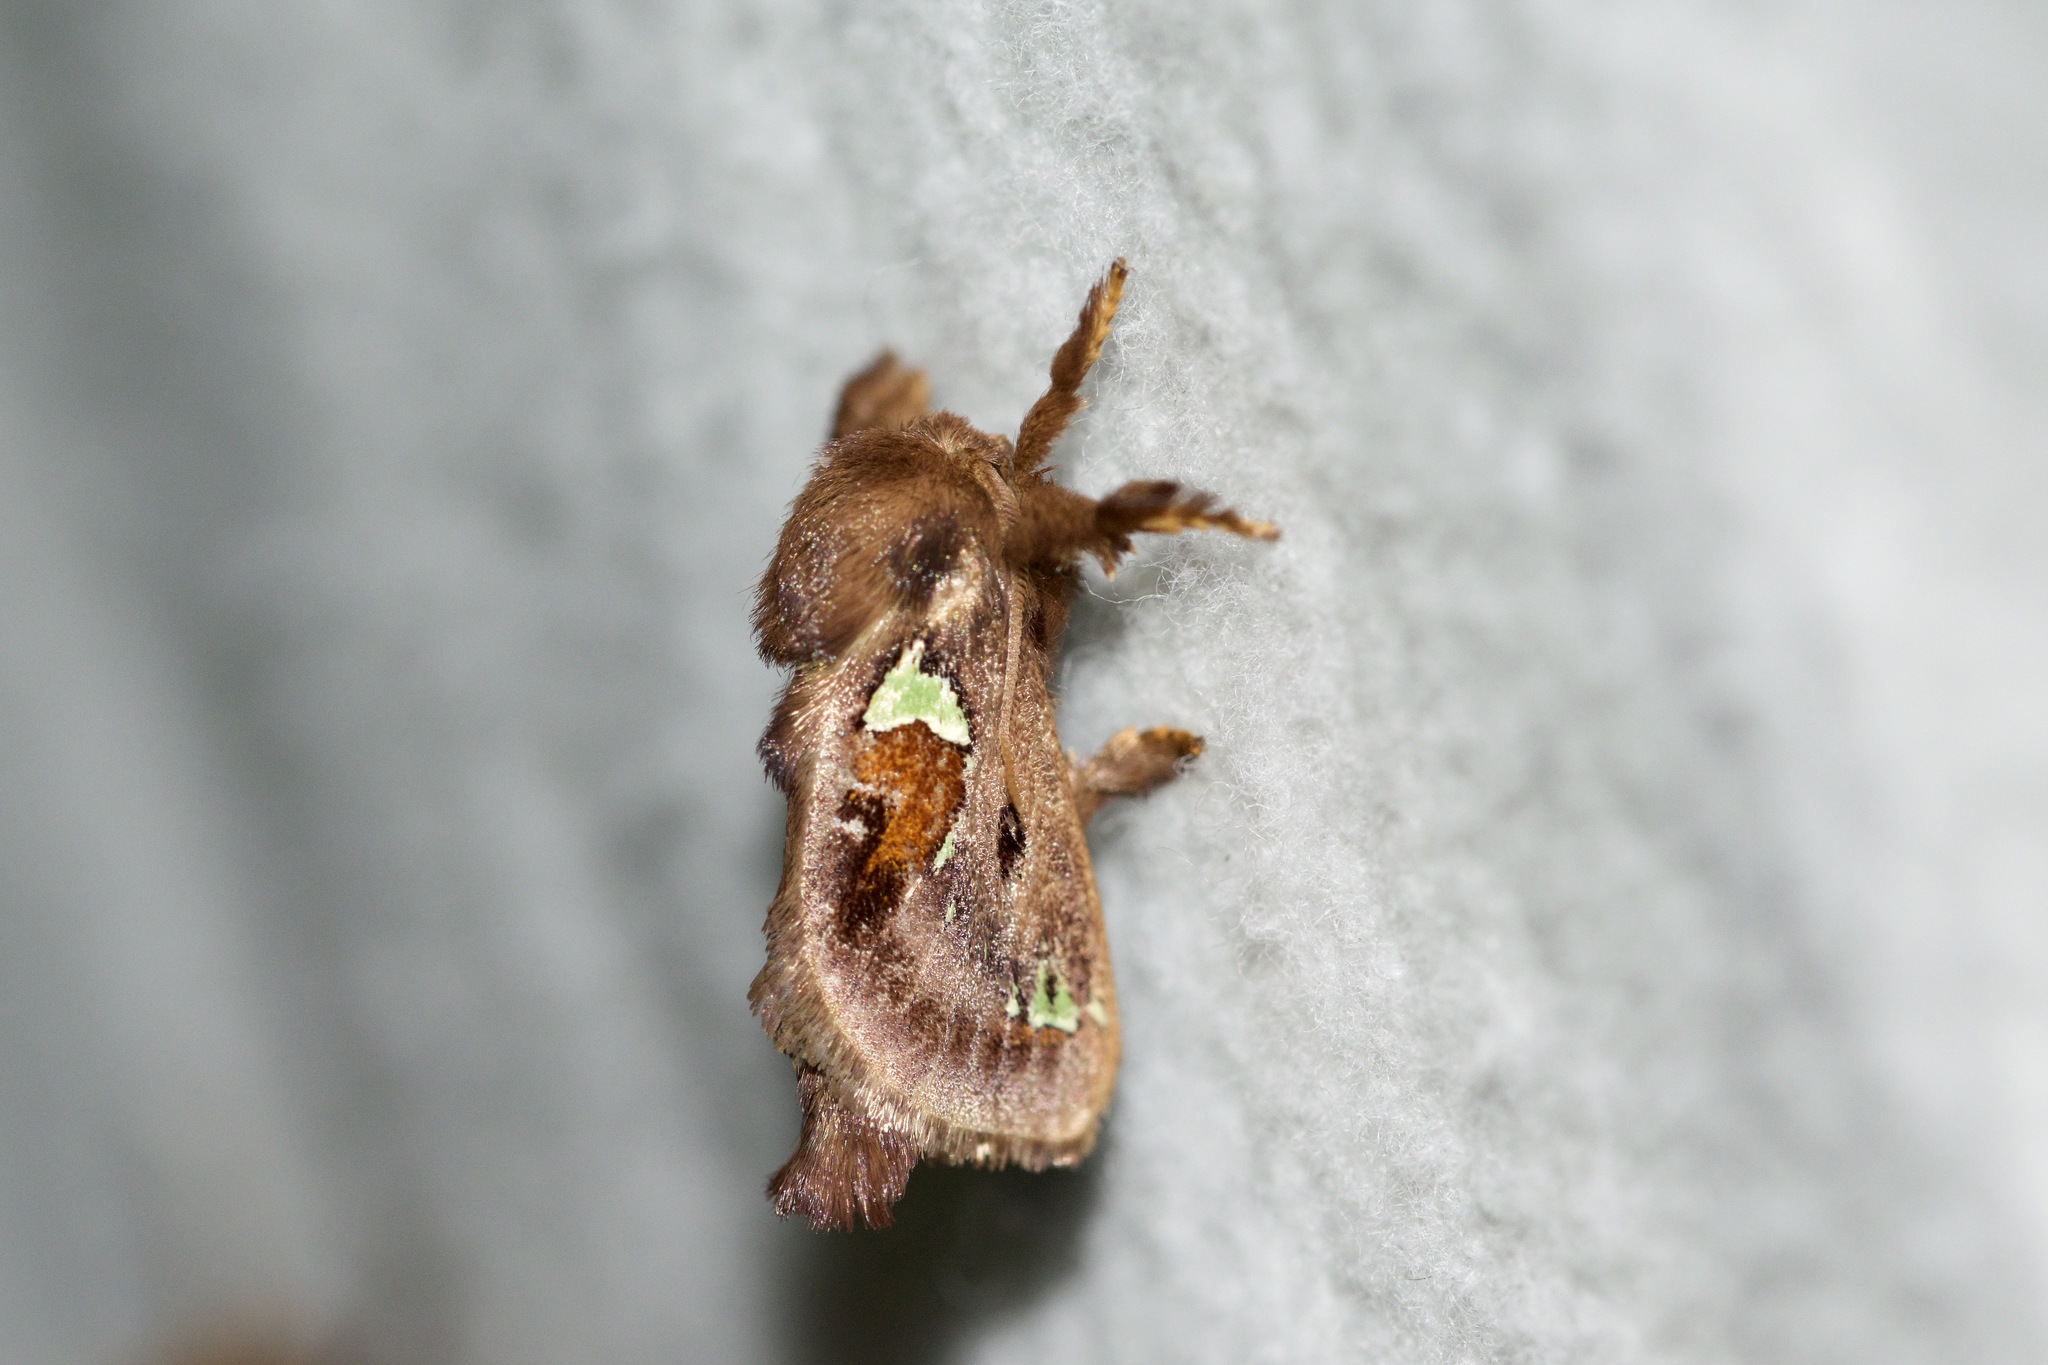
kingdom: Animalia
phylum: Arthropoda
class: Insecta
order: Lepidoptera
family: Limacodidae
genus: Euclea
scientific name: Euclea delphinii
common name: Spiny oak-slug moth
